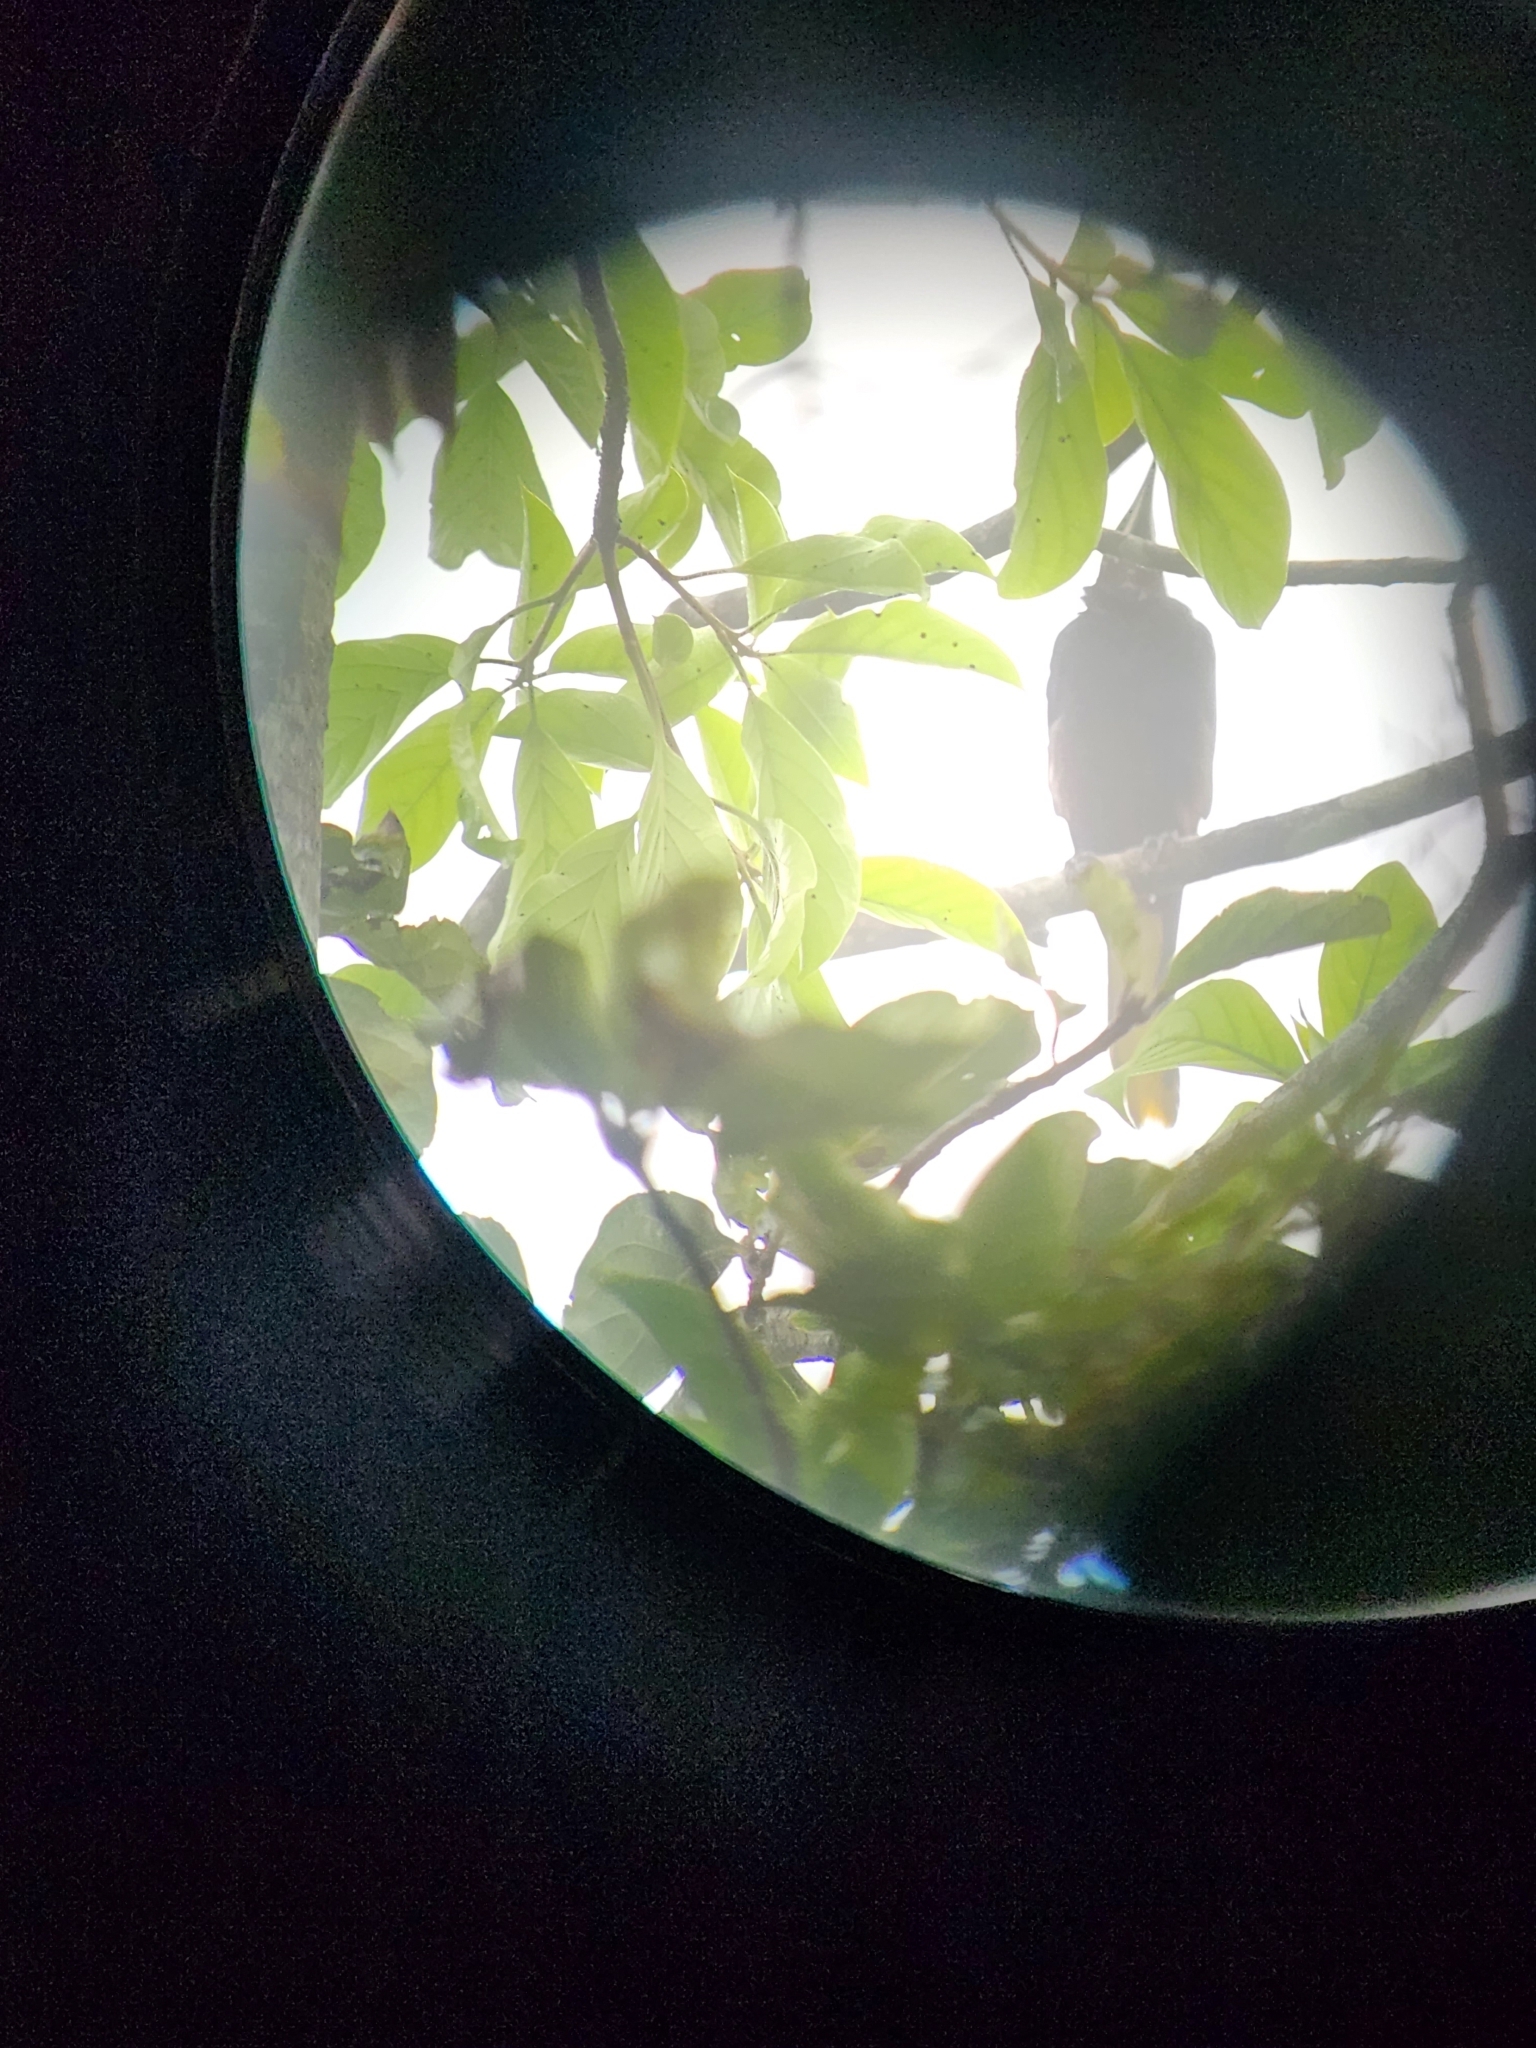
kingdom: Animalia
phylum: Chordata
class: Aves
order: Passeriformes
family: Icteridae
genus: Psarocolius
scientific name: Psarocolius wagleri
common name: Chestnut-headed oropendola
